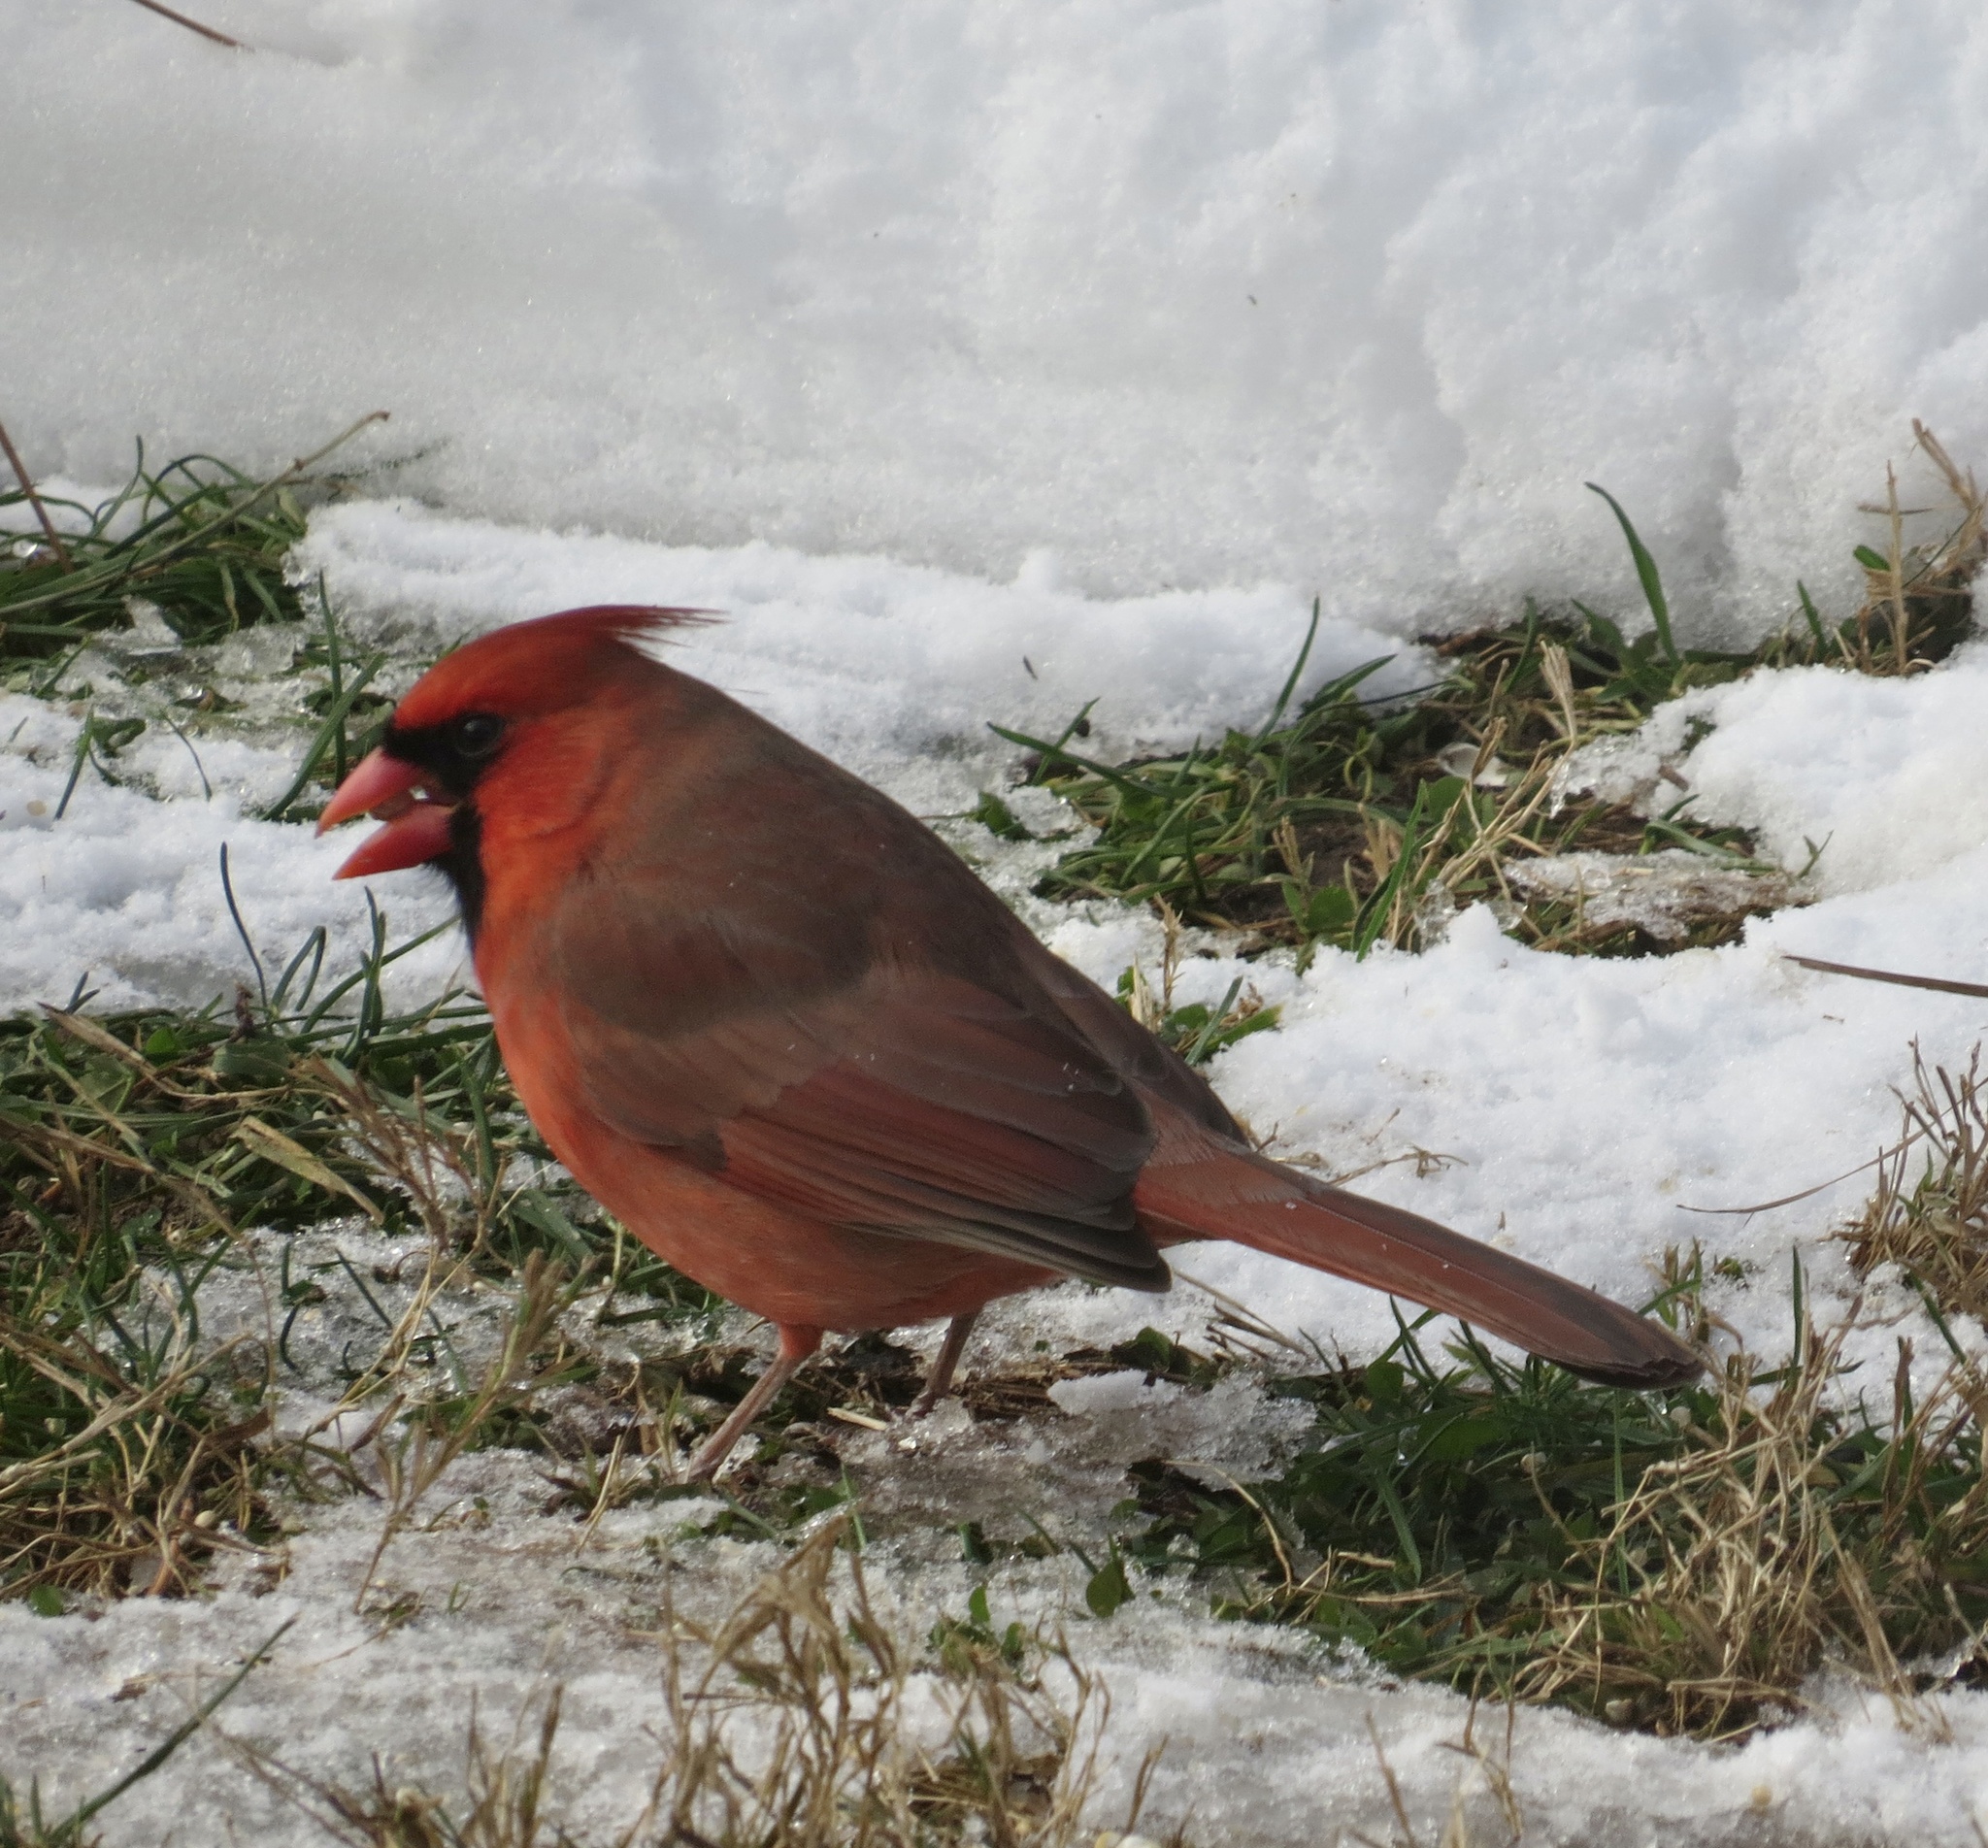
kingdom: Animalia
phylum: Chordata
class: Aves
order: Passeriformes
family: Cardinalidae
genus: Cardinalis
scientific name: Cardinalis cardinalis
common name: Northern cardinal
